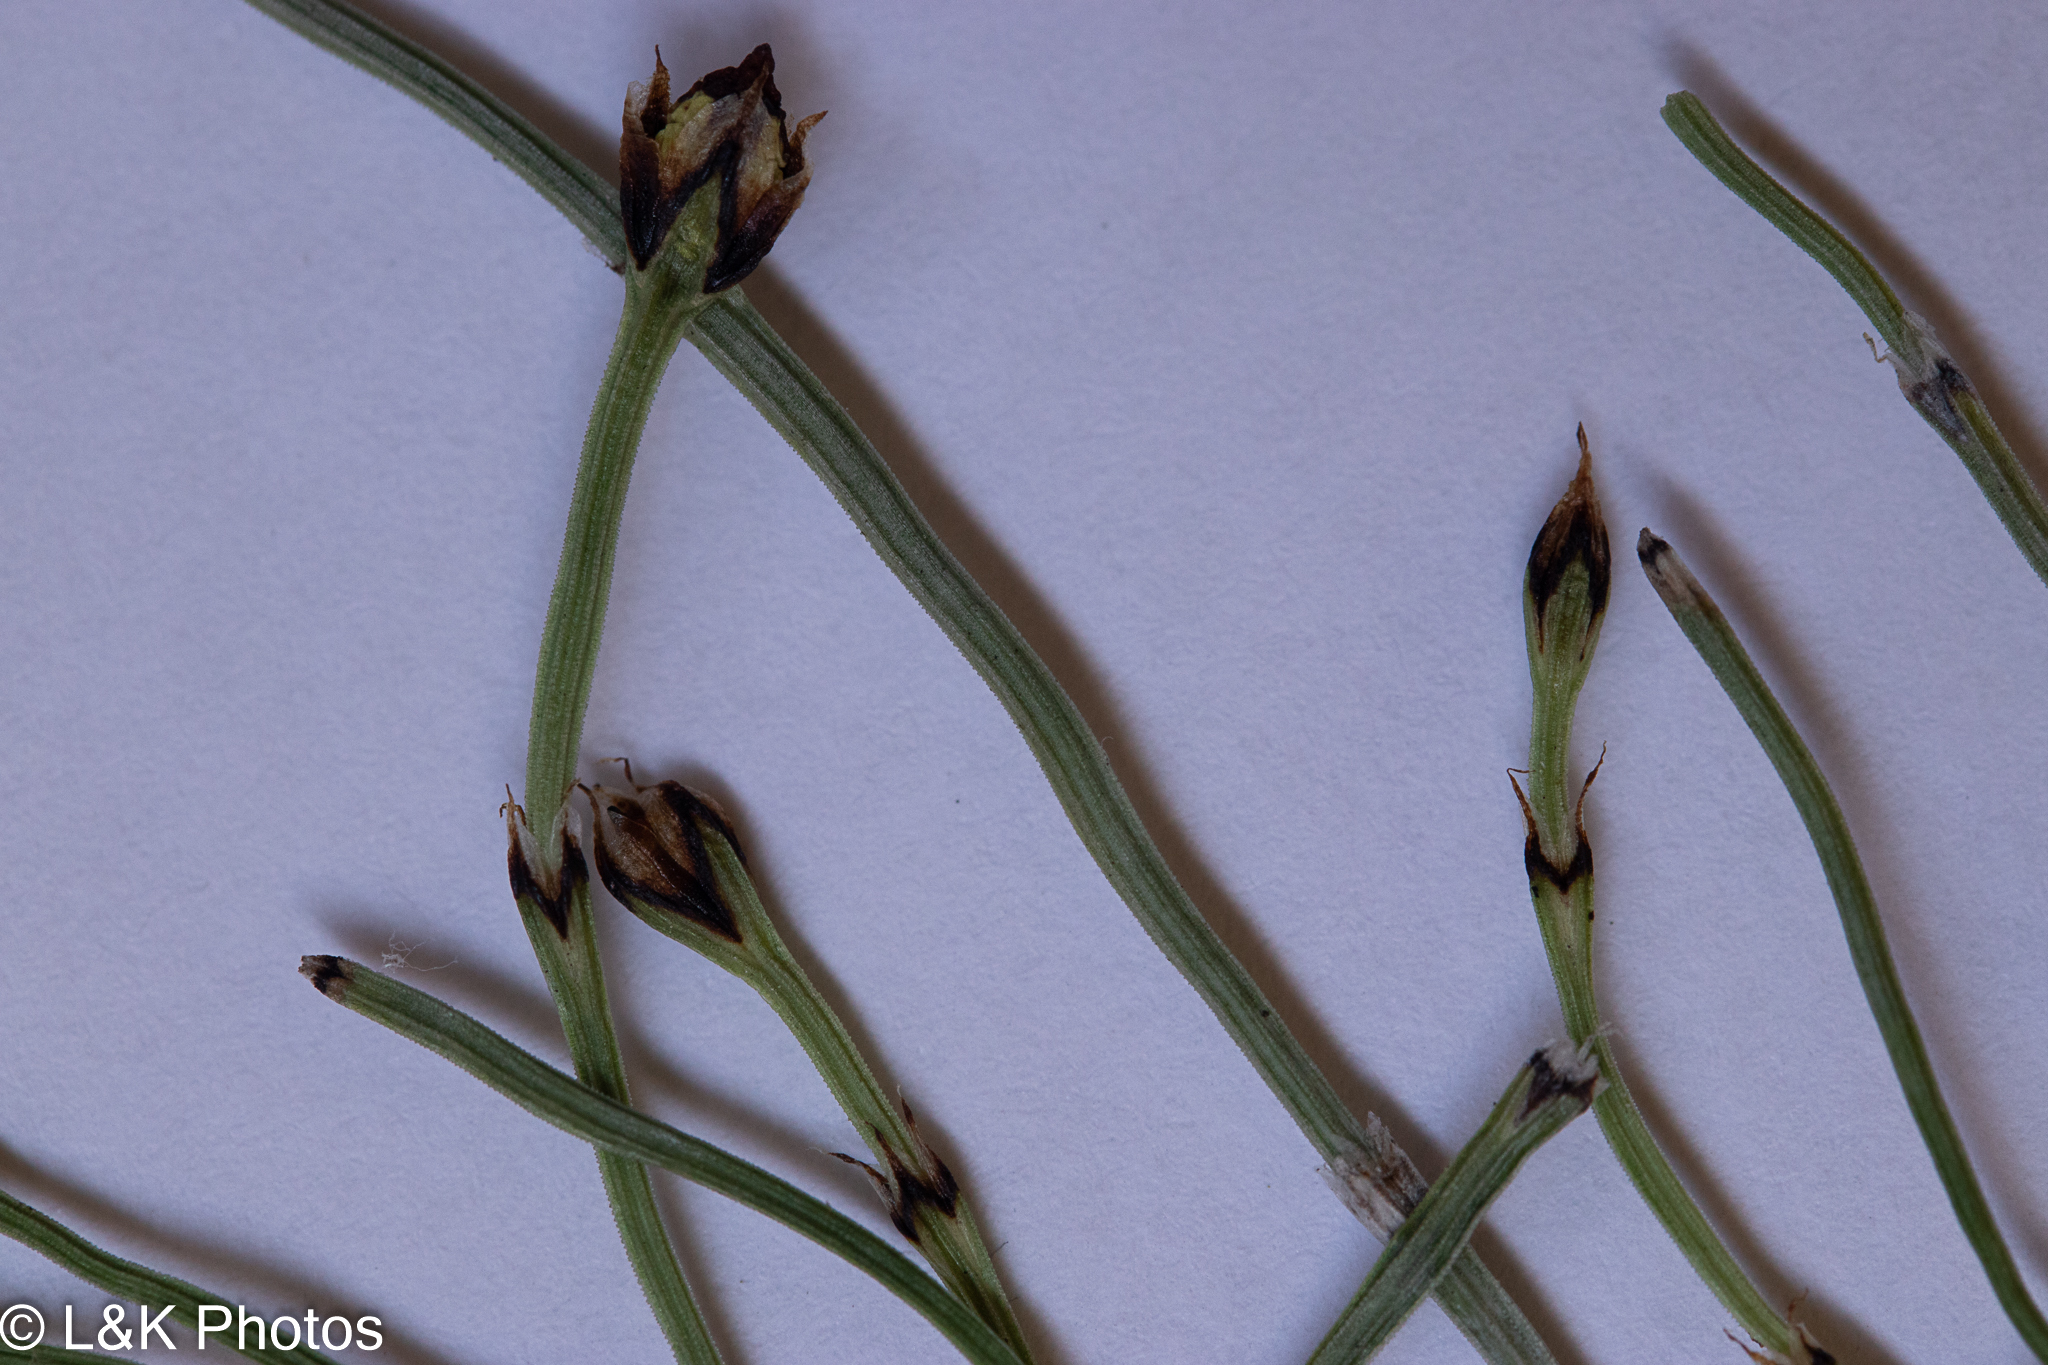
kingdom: Plantae
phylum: Tracheophyta
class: Polypodiopsida
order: Equisetales
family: Equisetaceae
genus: Equisetum
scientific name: Equisetum scirpoides
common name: Delicate horsetail
